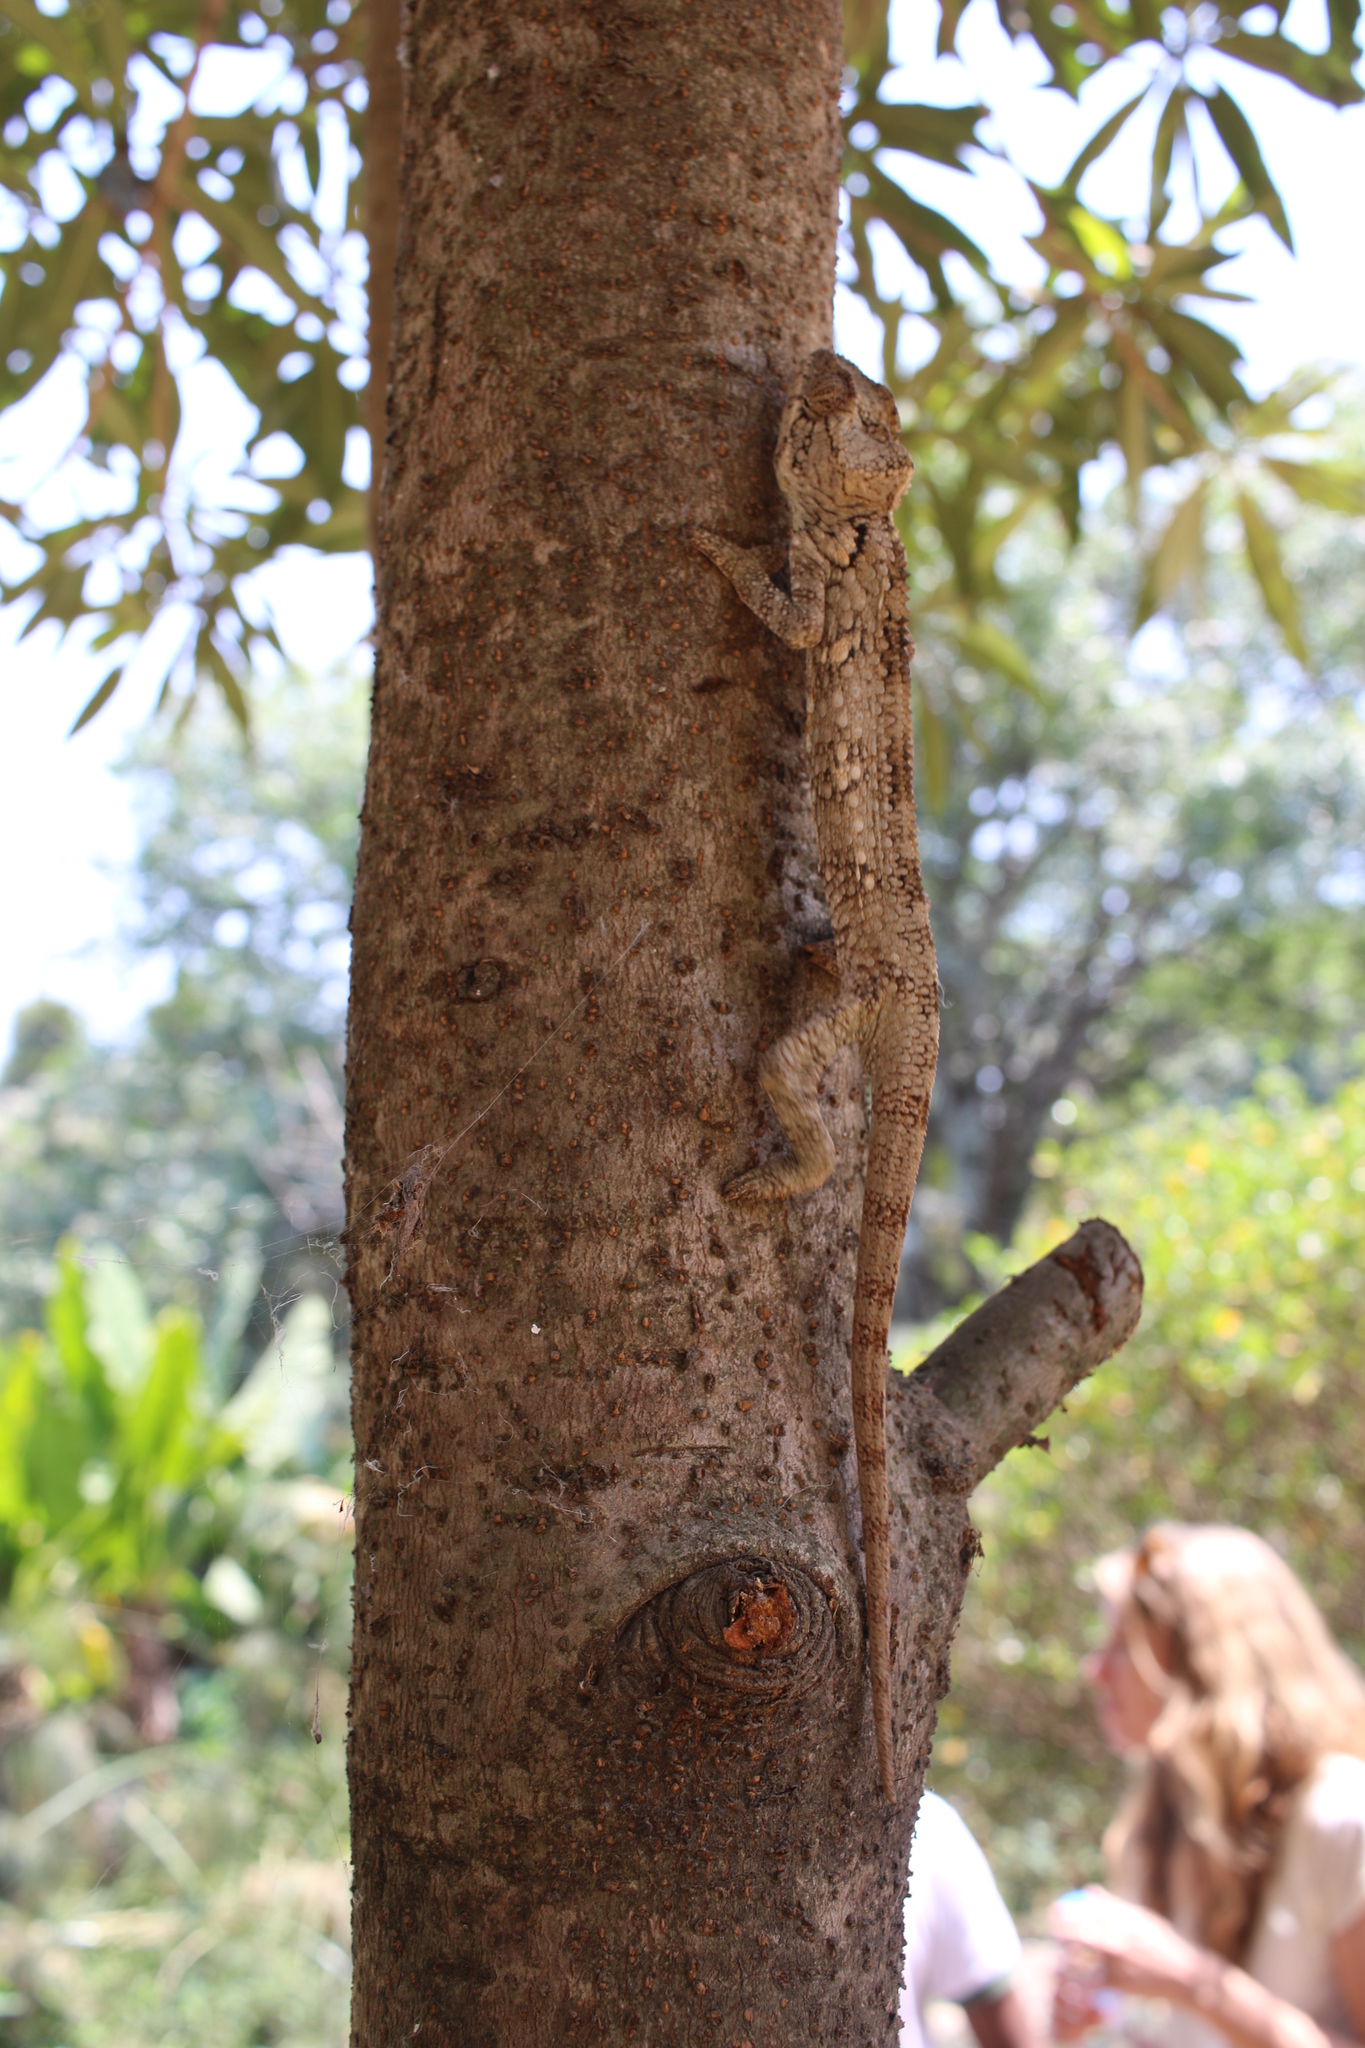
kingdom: Animalia
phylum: Chordata
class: Squamata
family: Chamaeleonidae
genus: Furcifer
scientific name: Furcifer oustaleti
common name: Oustalet's chameleon
